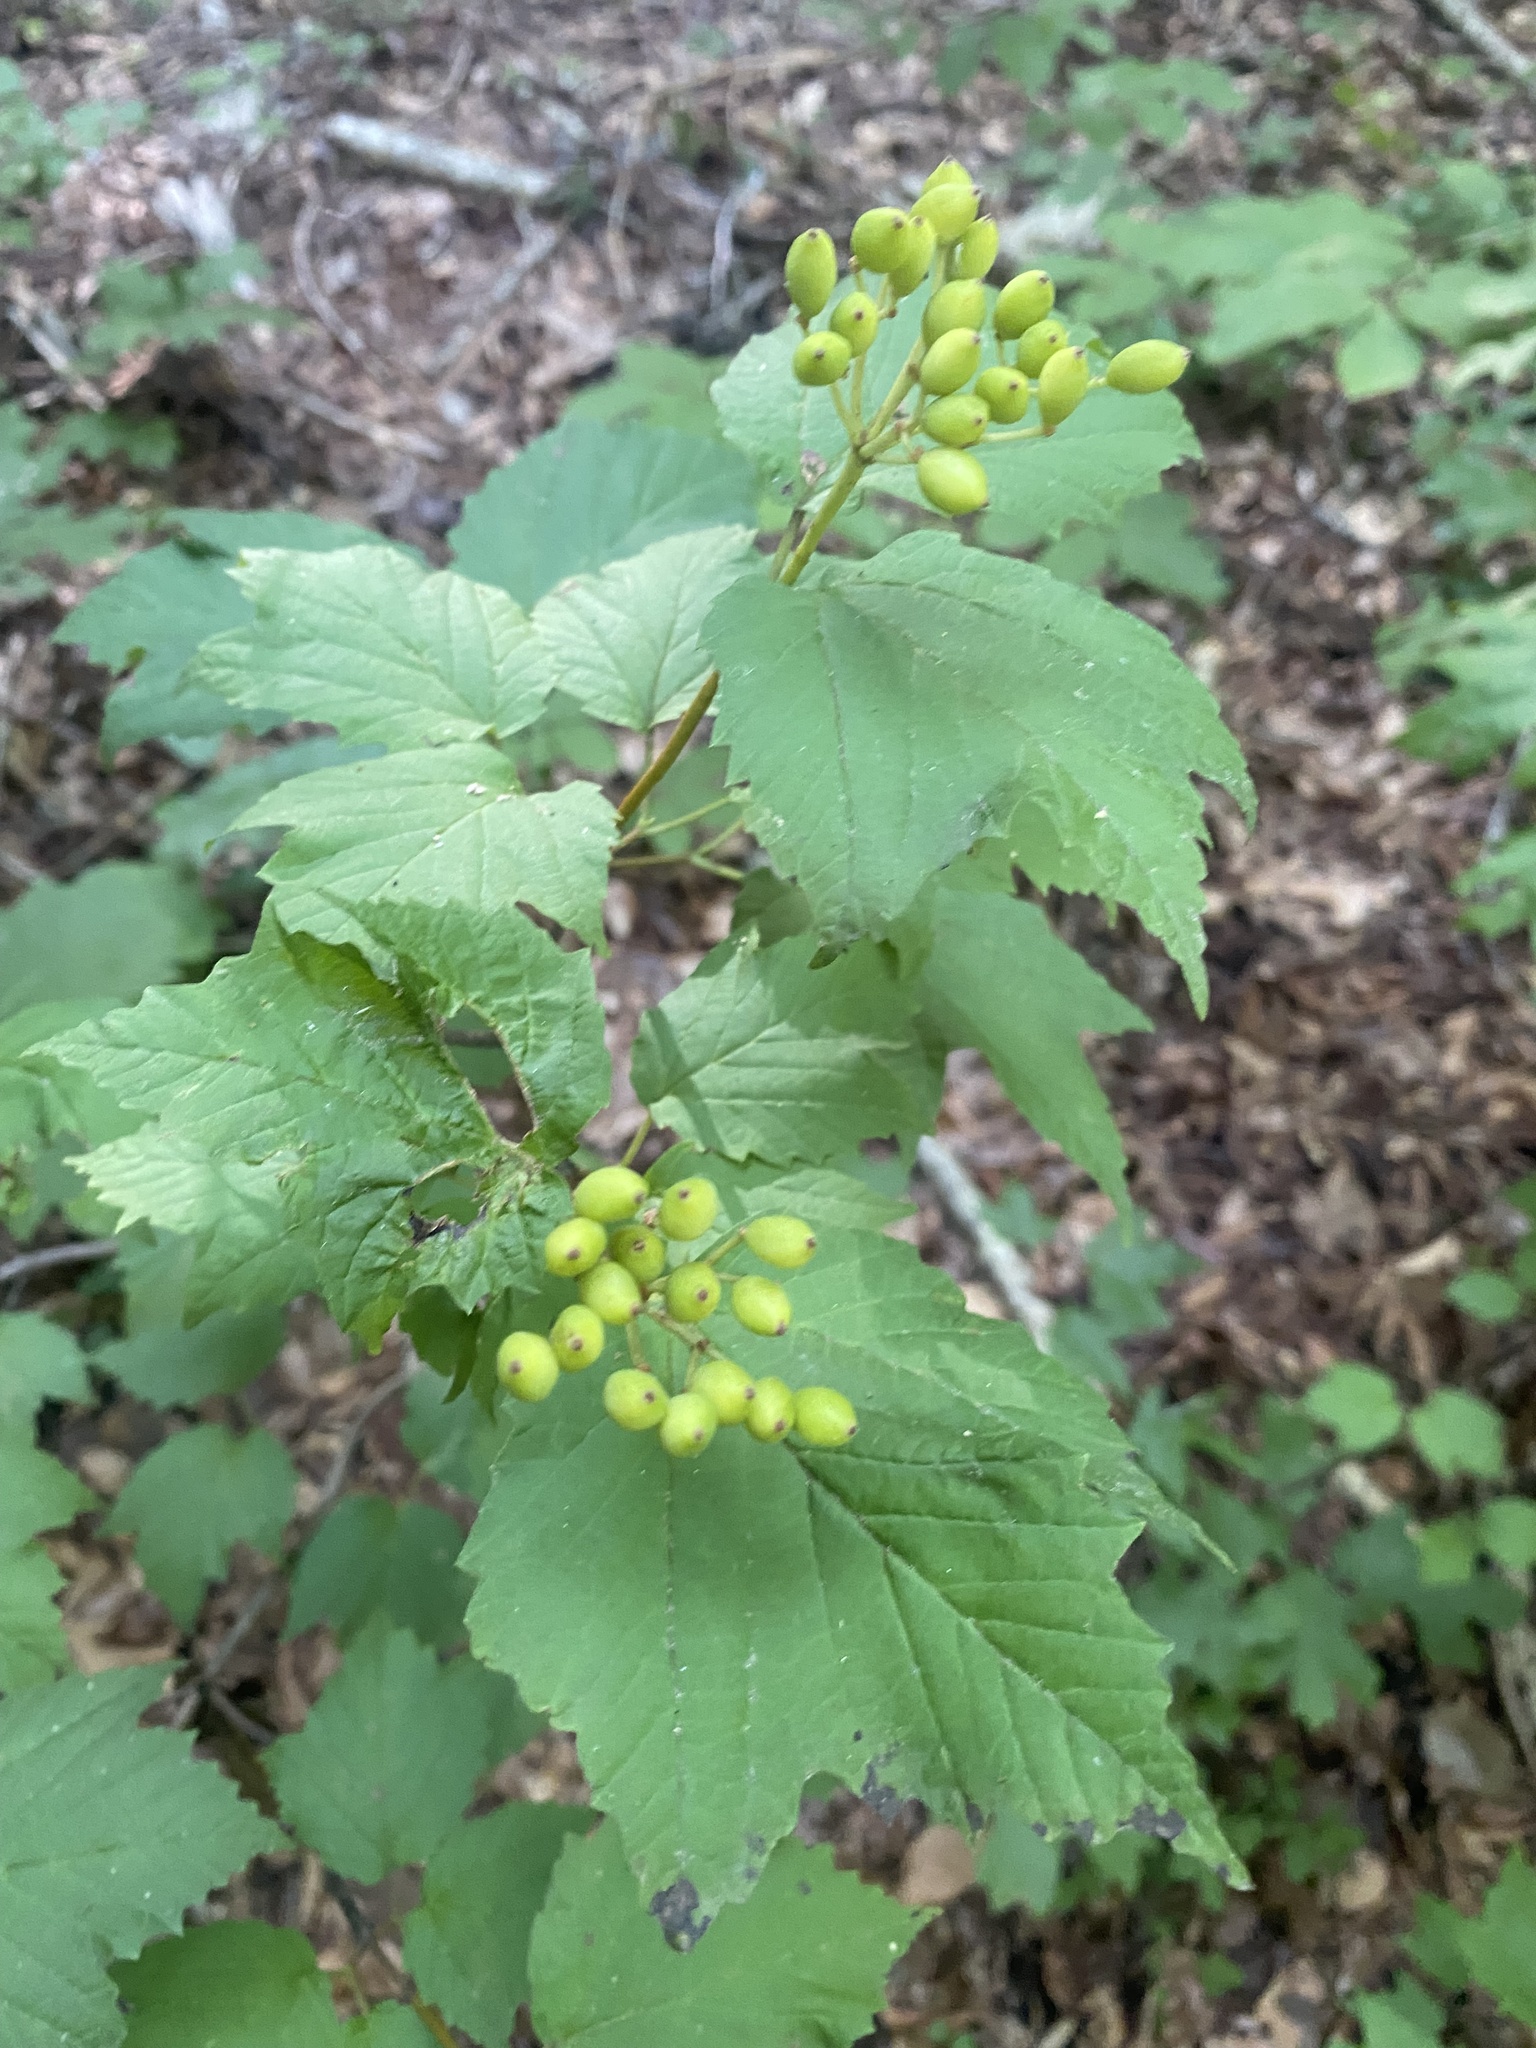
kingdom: Plantae
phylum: Tracheophyta
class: Magnoliopsida
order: Dipsacales
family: Viburnaceae
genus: Viburnum
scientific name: Viburnum acerifolium
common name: Dockmackie
